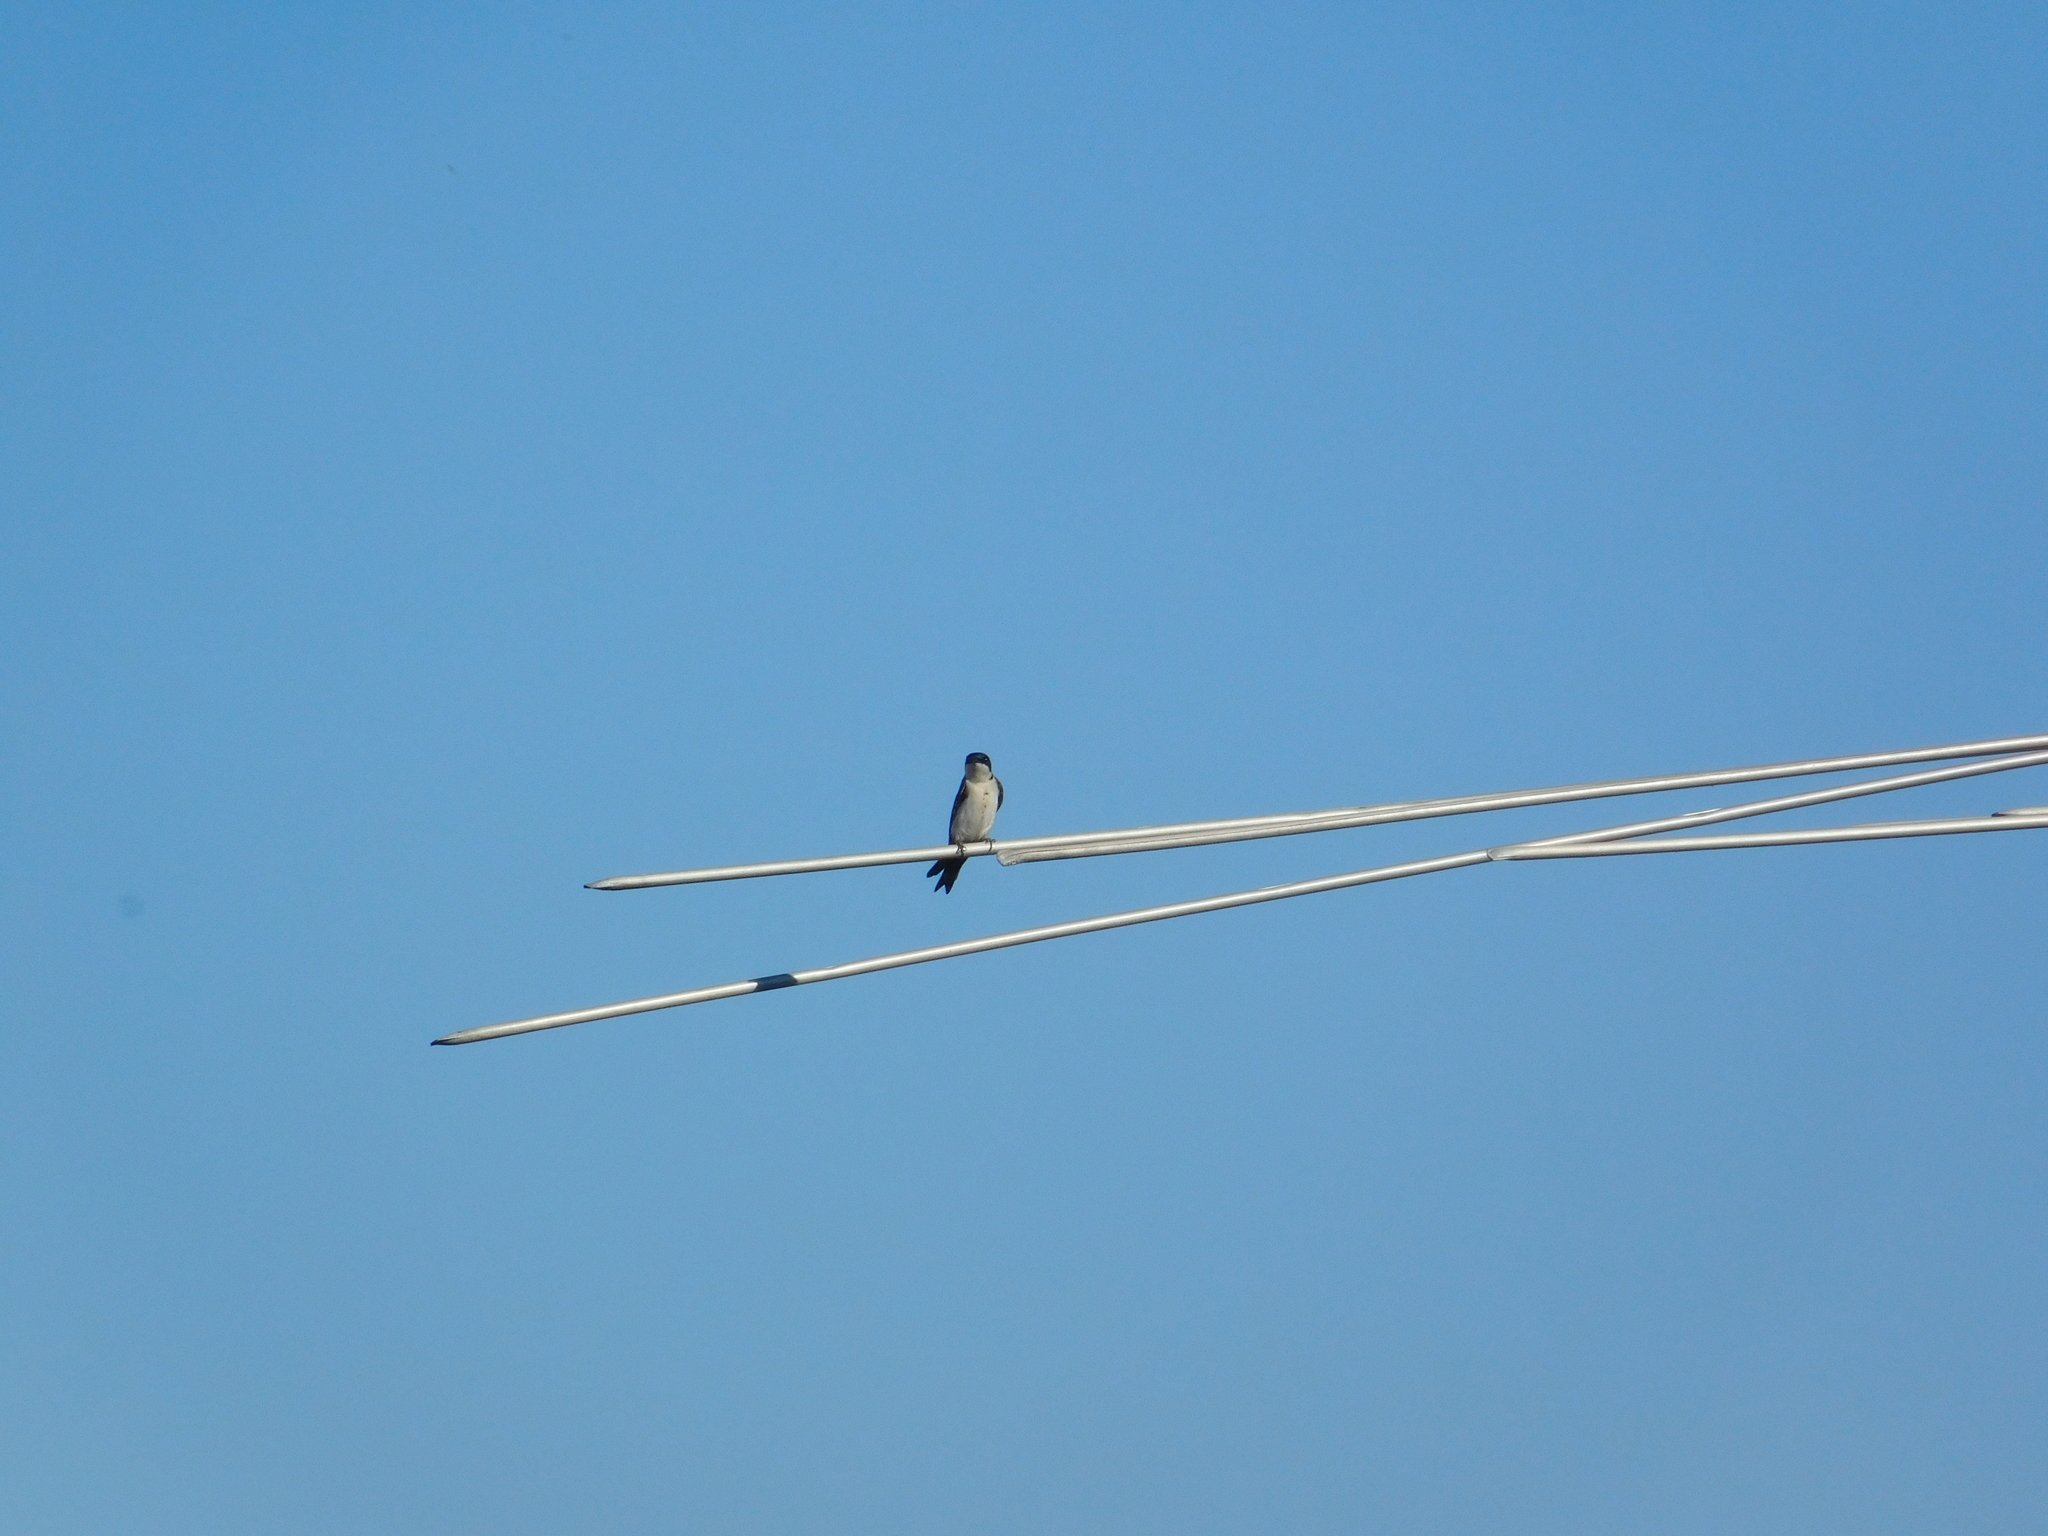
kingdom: Animalia
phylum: Chordata
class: Aves
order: Passeriformes
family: Hirundinidae
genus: Notiochelidon
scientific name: Notiochelidon cyanoleuca
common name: Blue-and-white swallow
